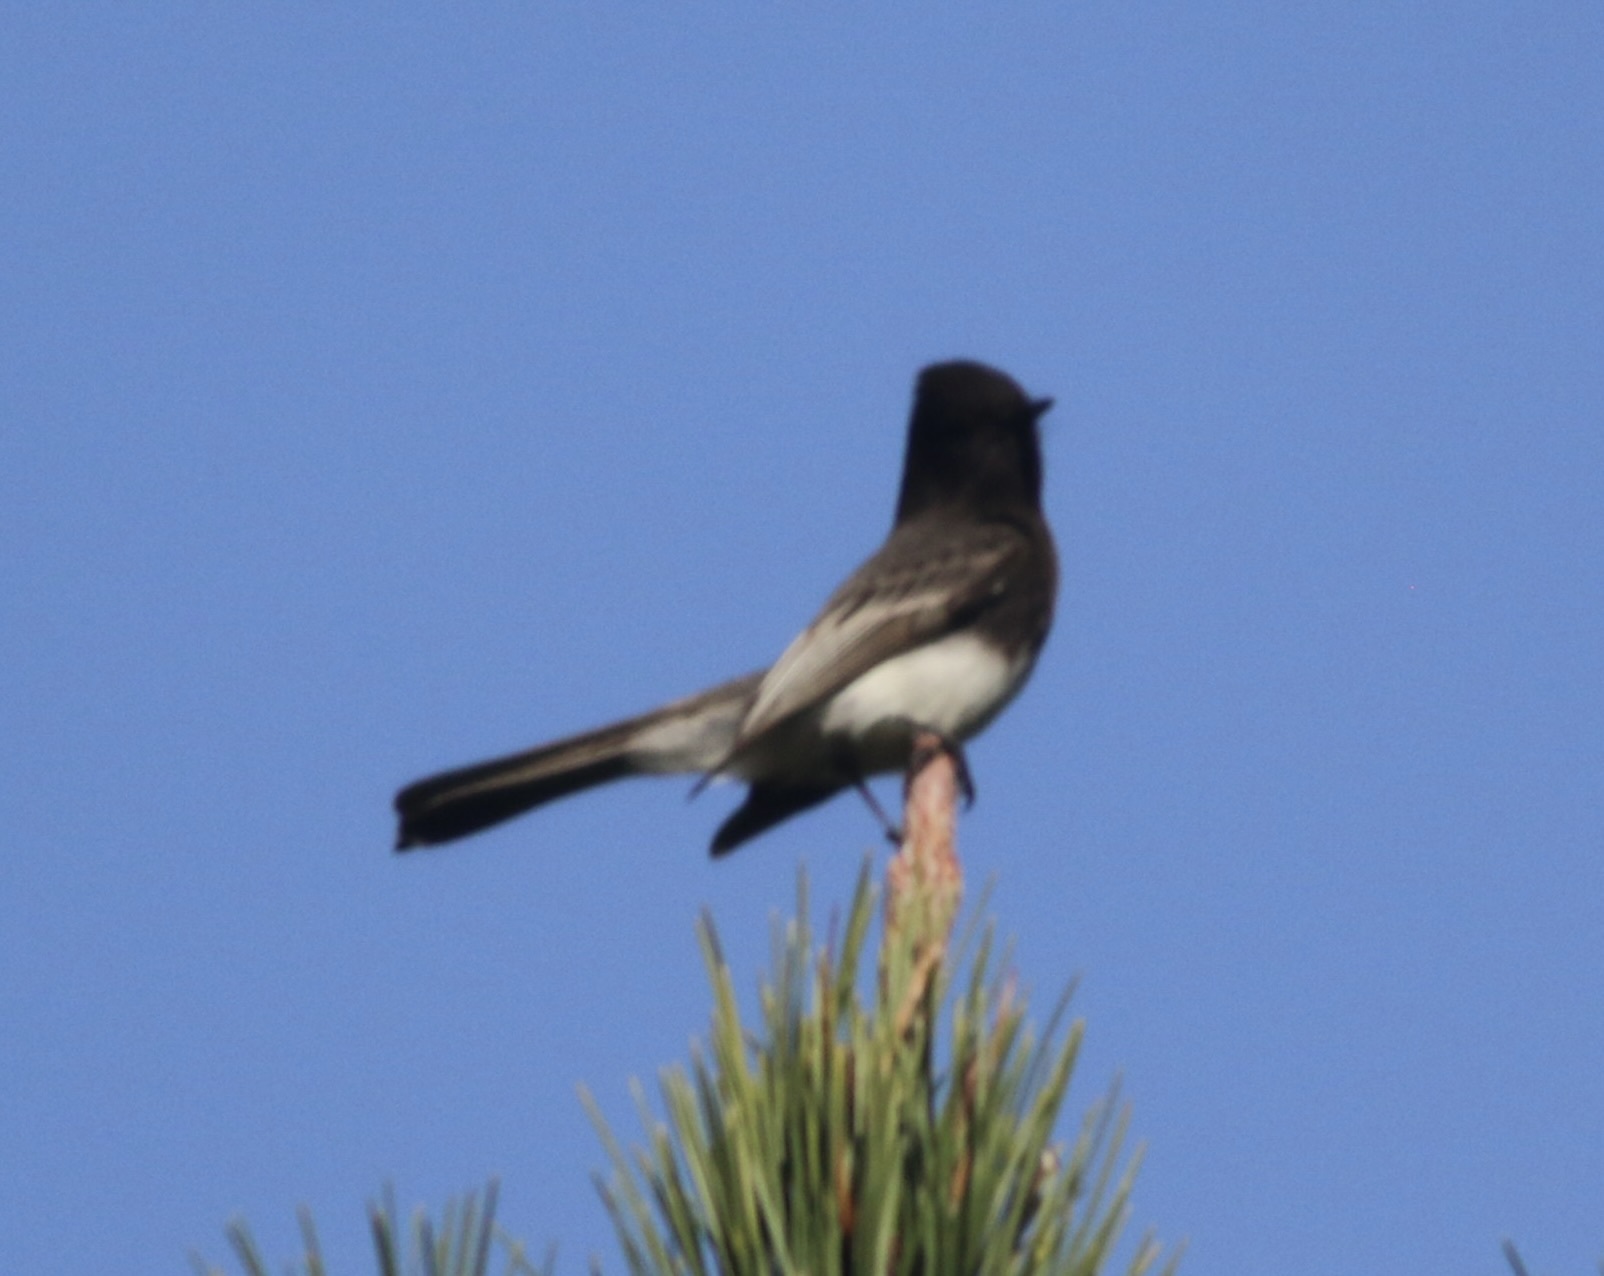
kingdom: Animalia
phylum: Chordata
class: Aves
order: Passeriformes
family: Tyrannidae
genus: Sayornis
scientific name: Sayornis nigricans
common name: Black phoebe
